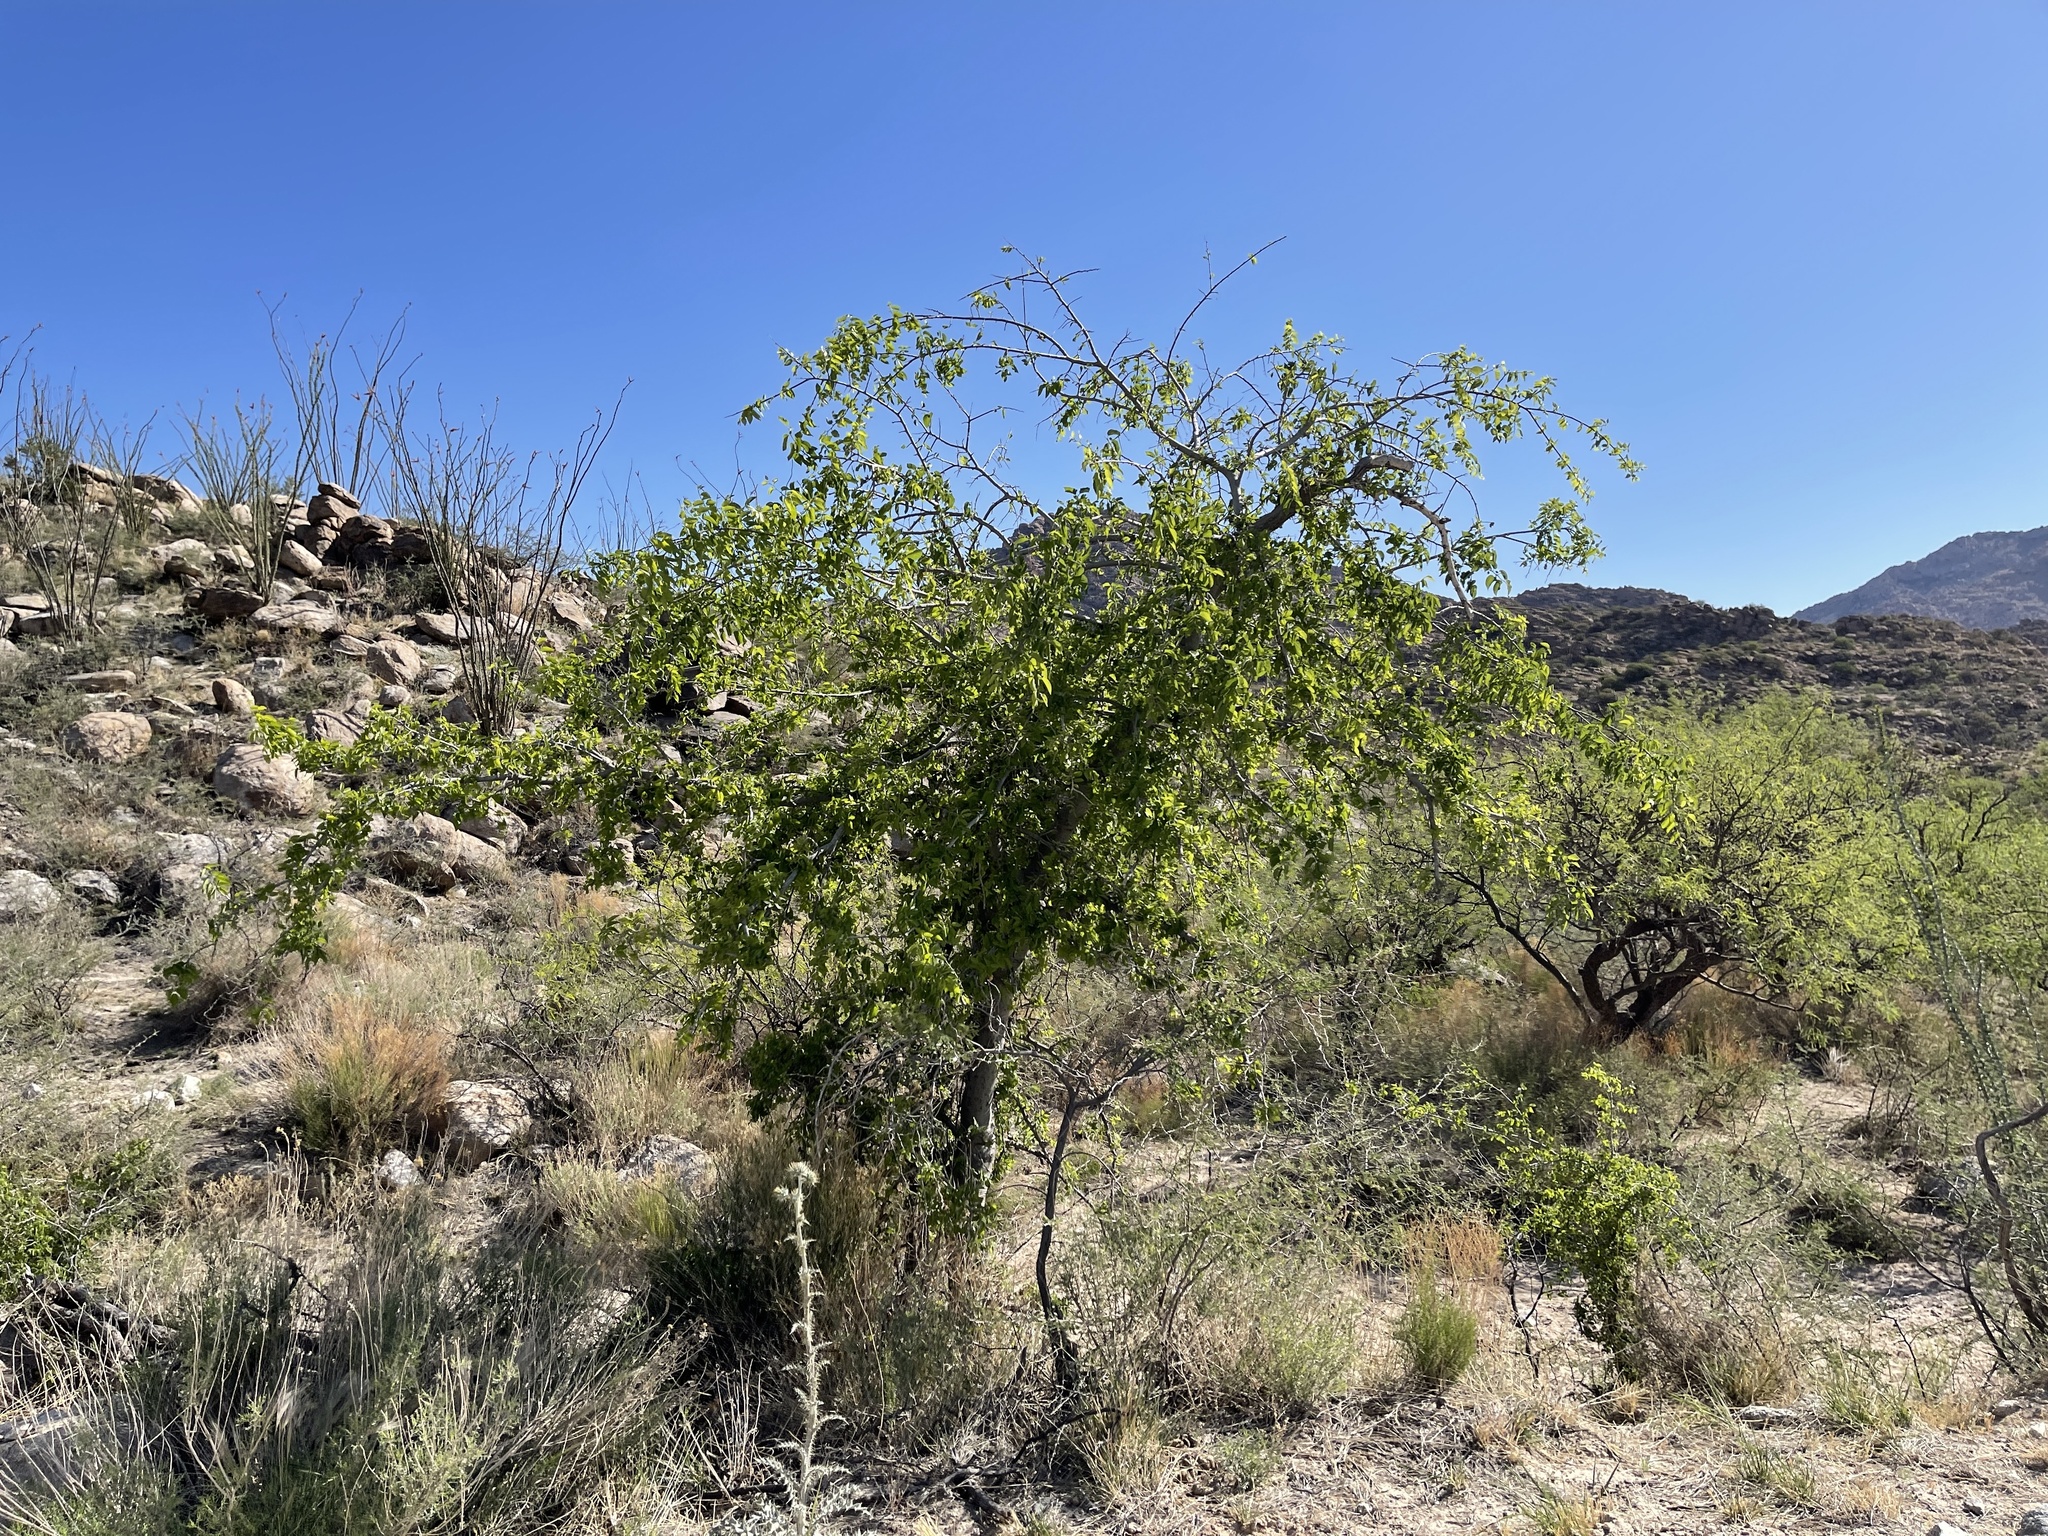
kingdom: Plantae
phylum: Tracheophyta
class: Magnoliopsida
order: Rosales
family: Cannabaceae
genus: Celtis
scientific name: Celtis reticulata
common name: Netleaf hackberry
